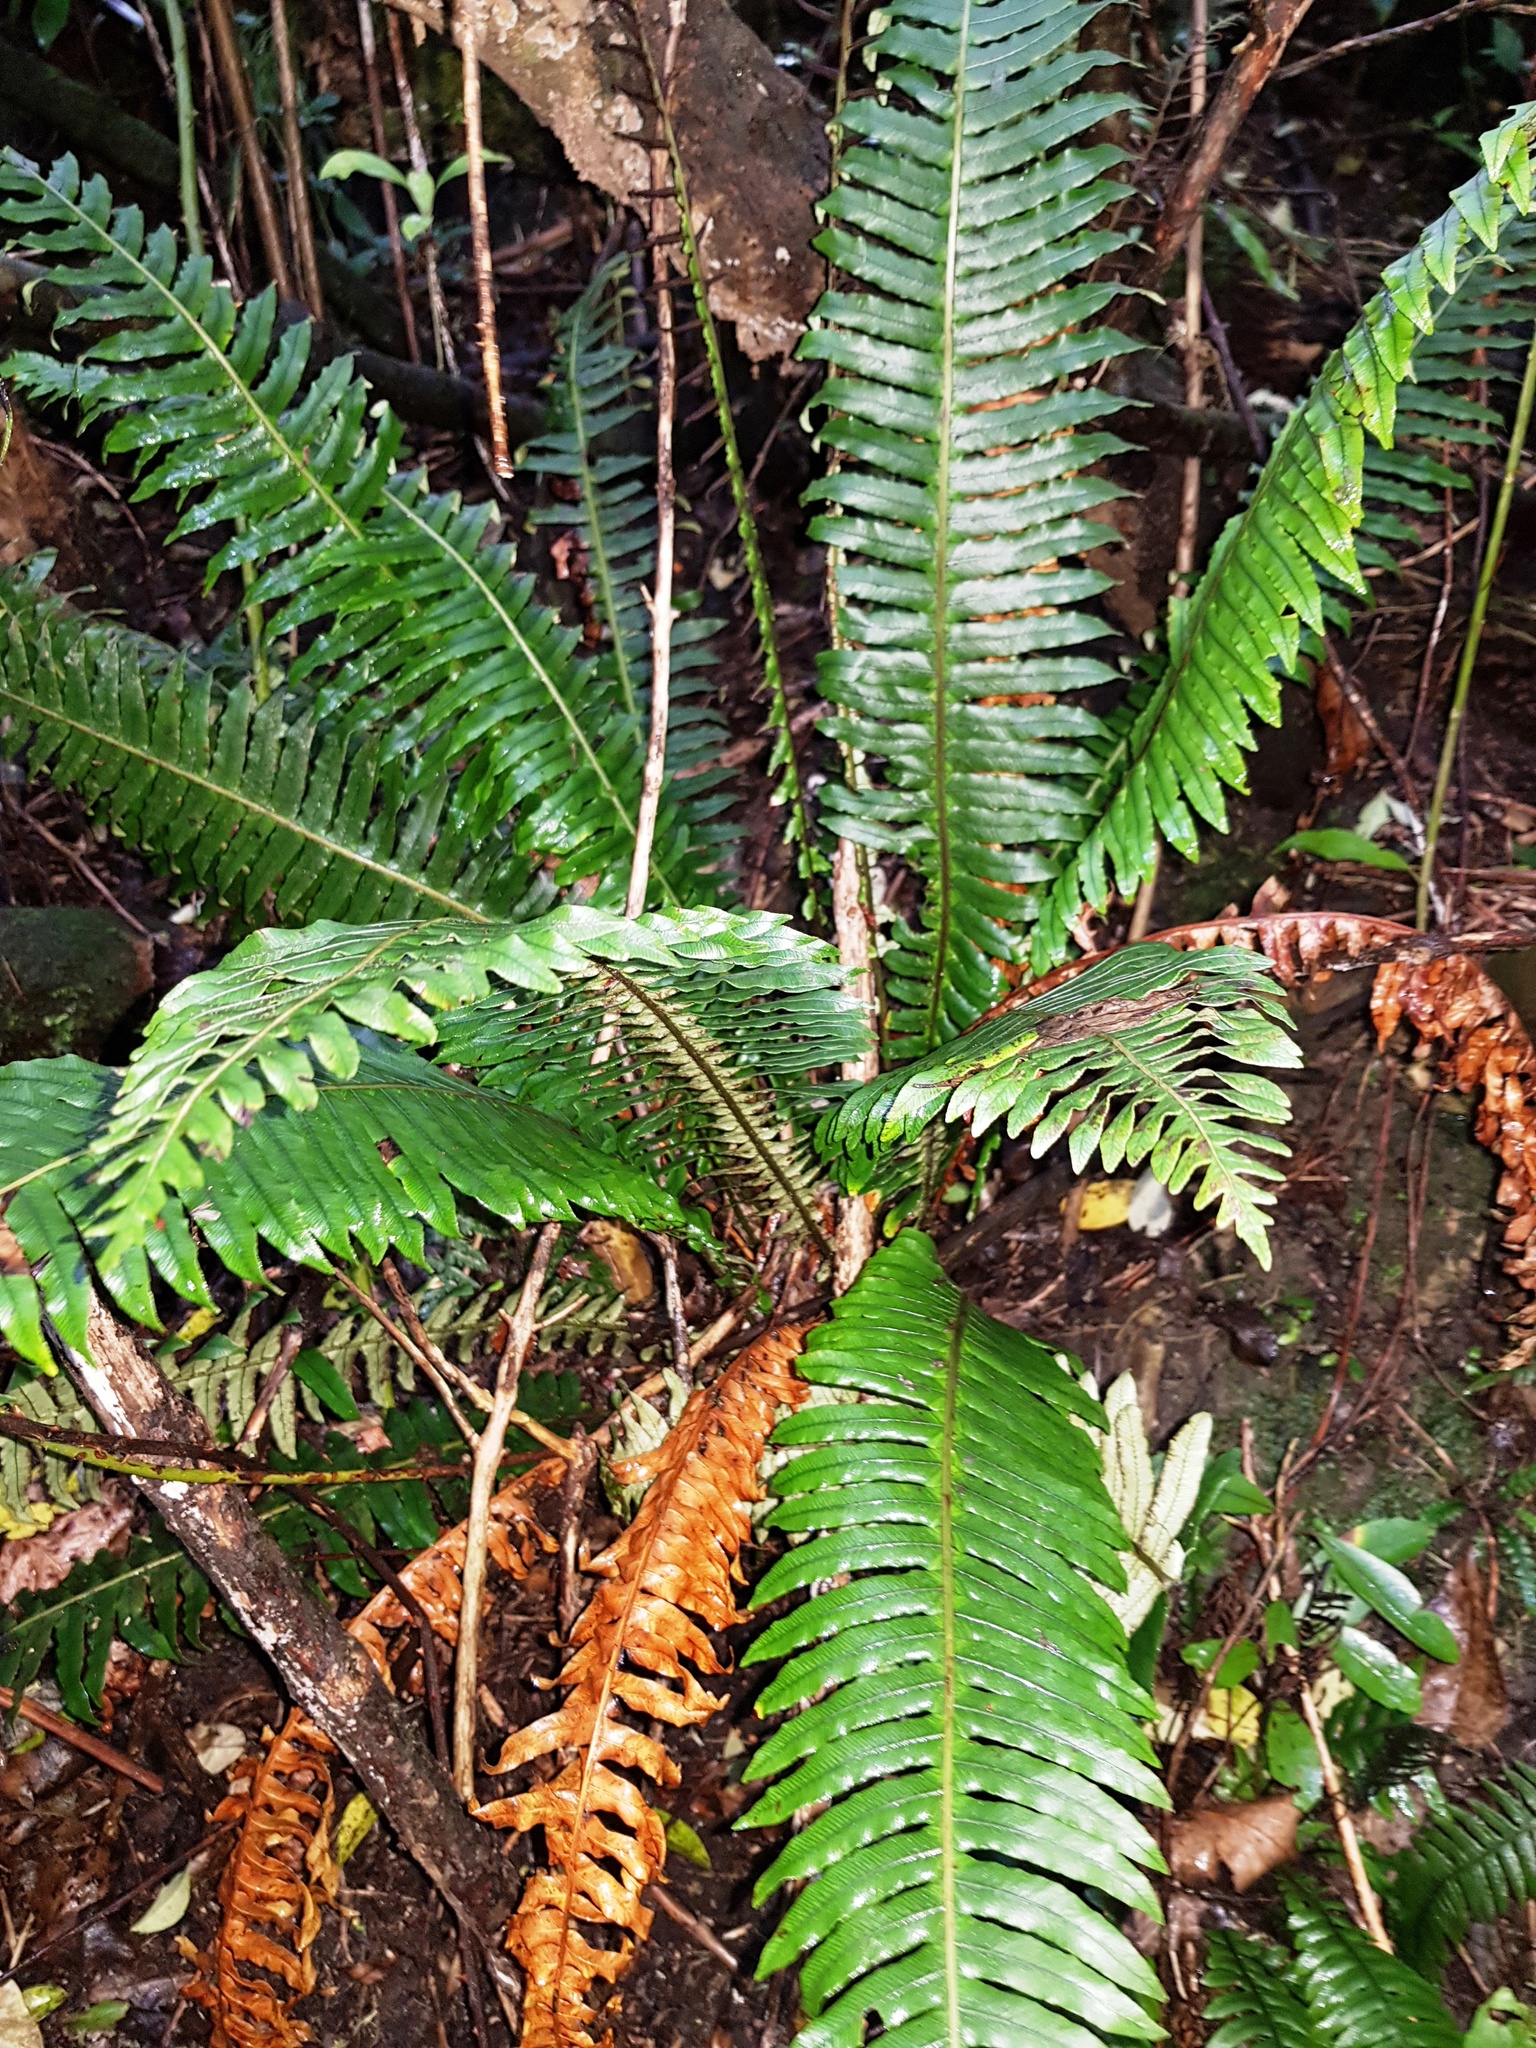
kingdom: Plantae
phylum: Tracheophyta
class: Polypodiopsida
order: Polypodiales
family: Blechnaceae
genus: Lomaria
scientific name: Lomaria discolor
